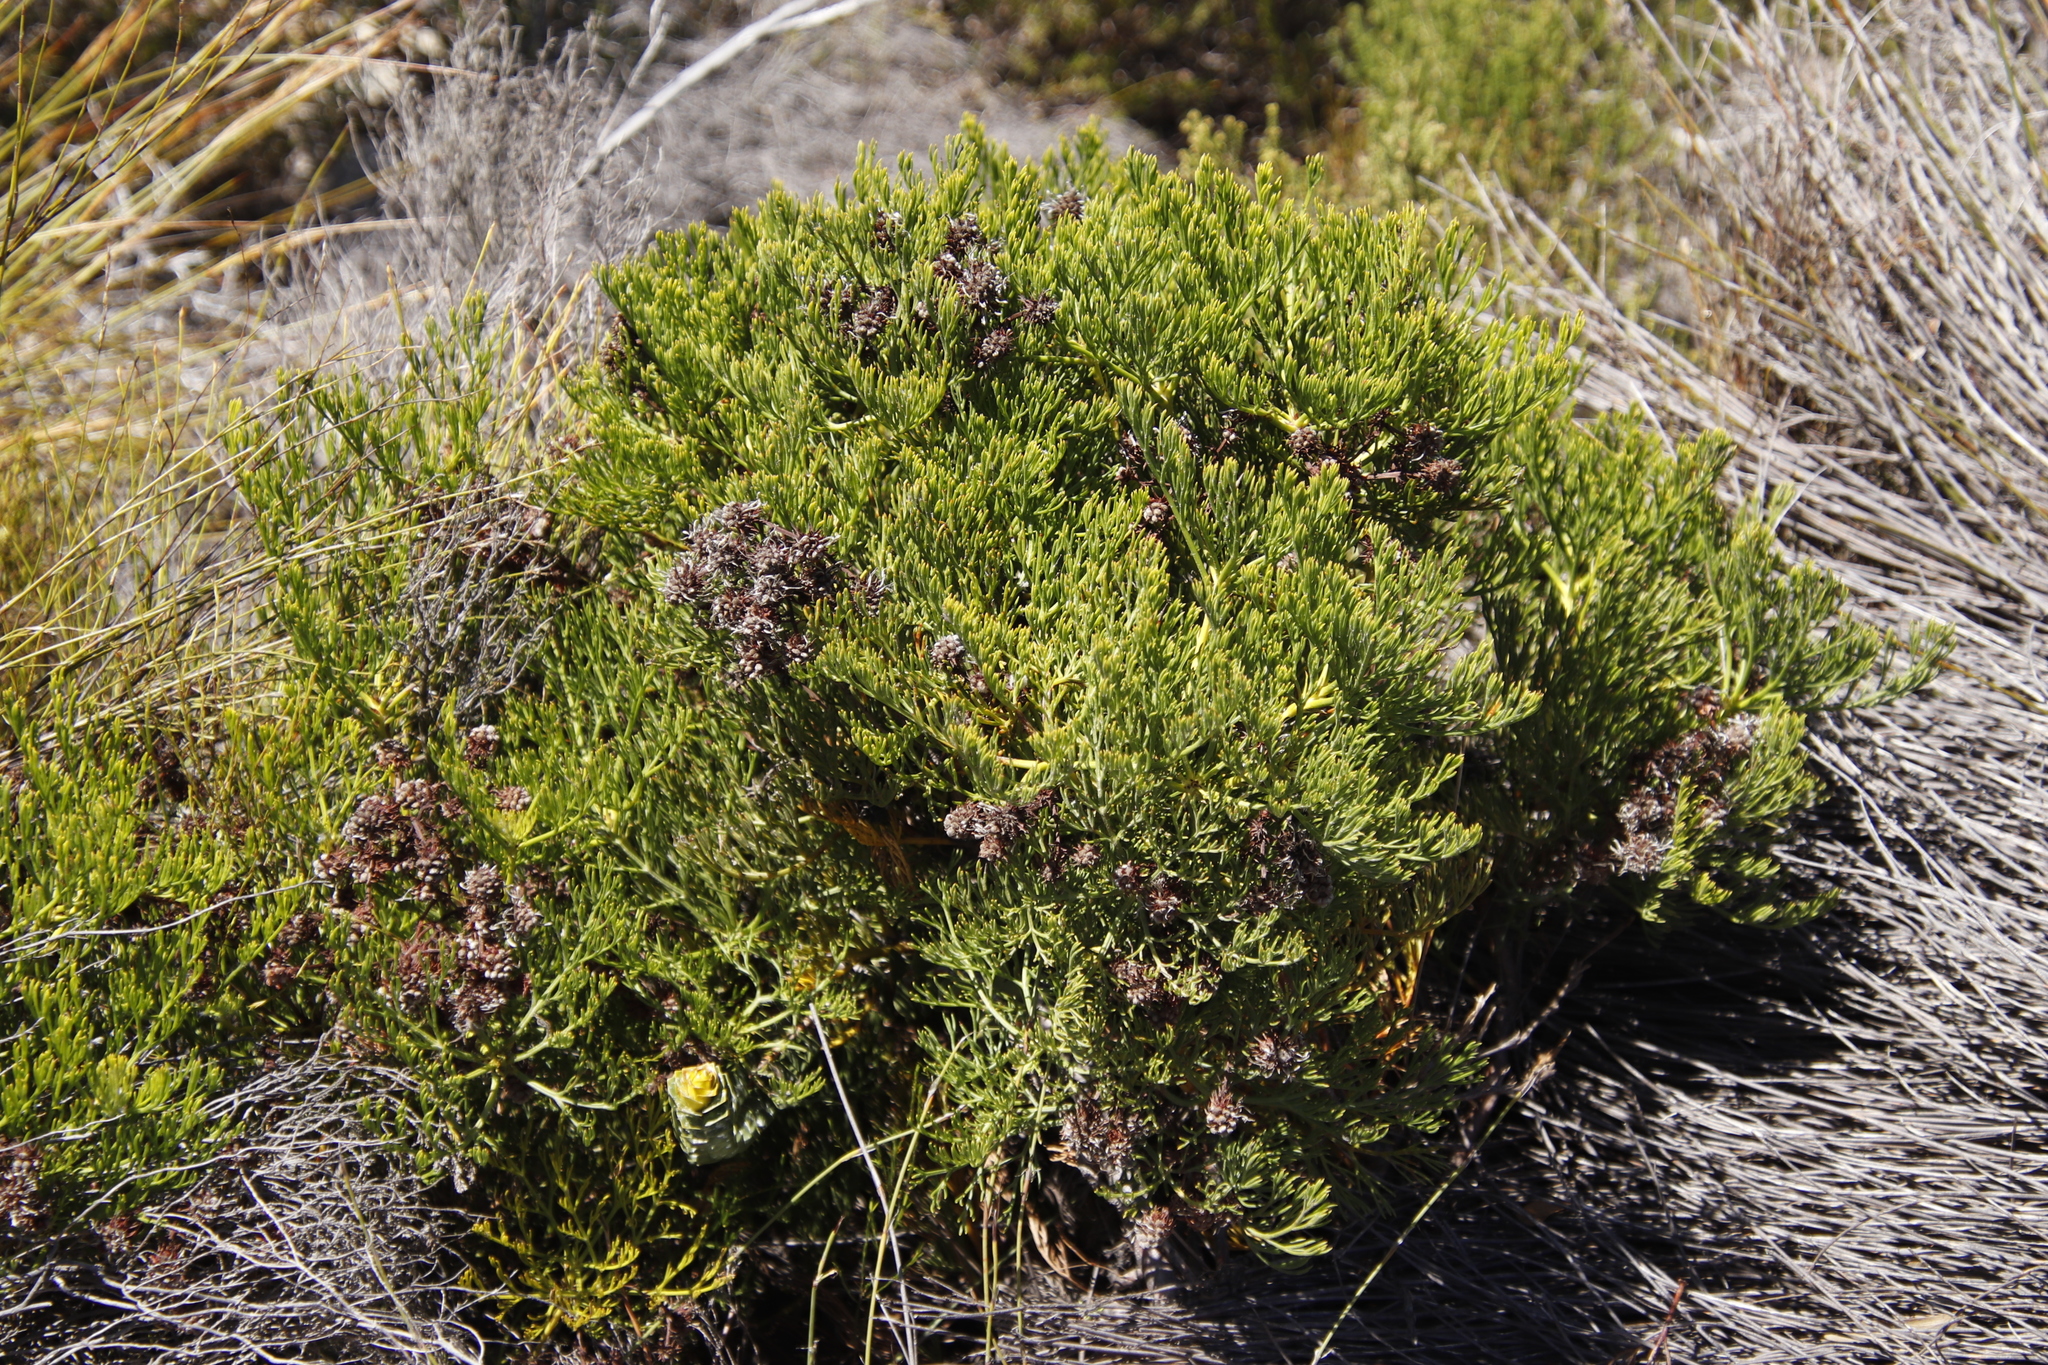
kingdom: Plantae
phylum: Tracheophyta
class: Magnoliopsida
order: Proteales
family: Proteaceae
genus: Serruria
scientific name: Serruria elongata
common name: Long-stalk spiderhead
